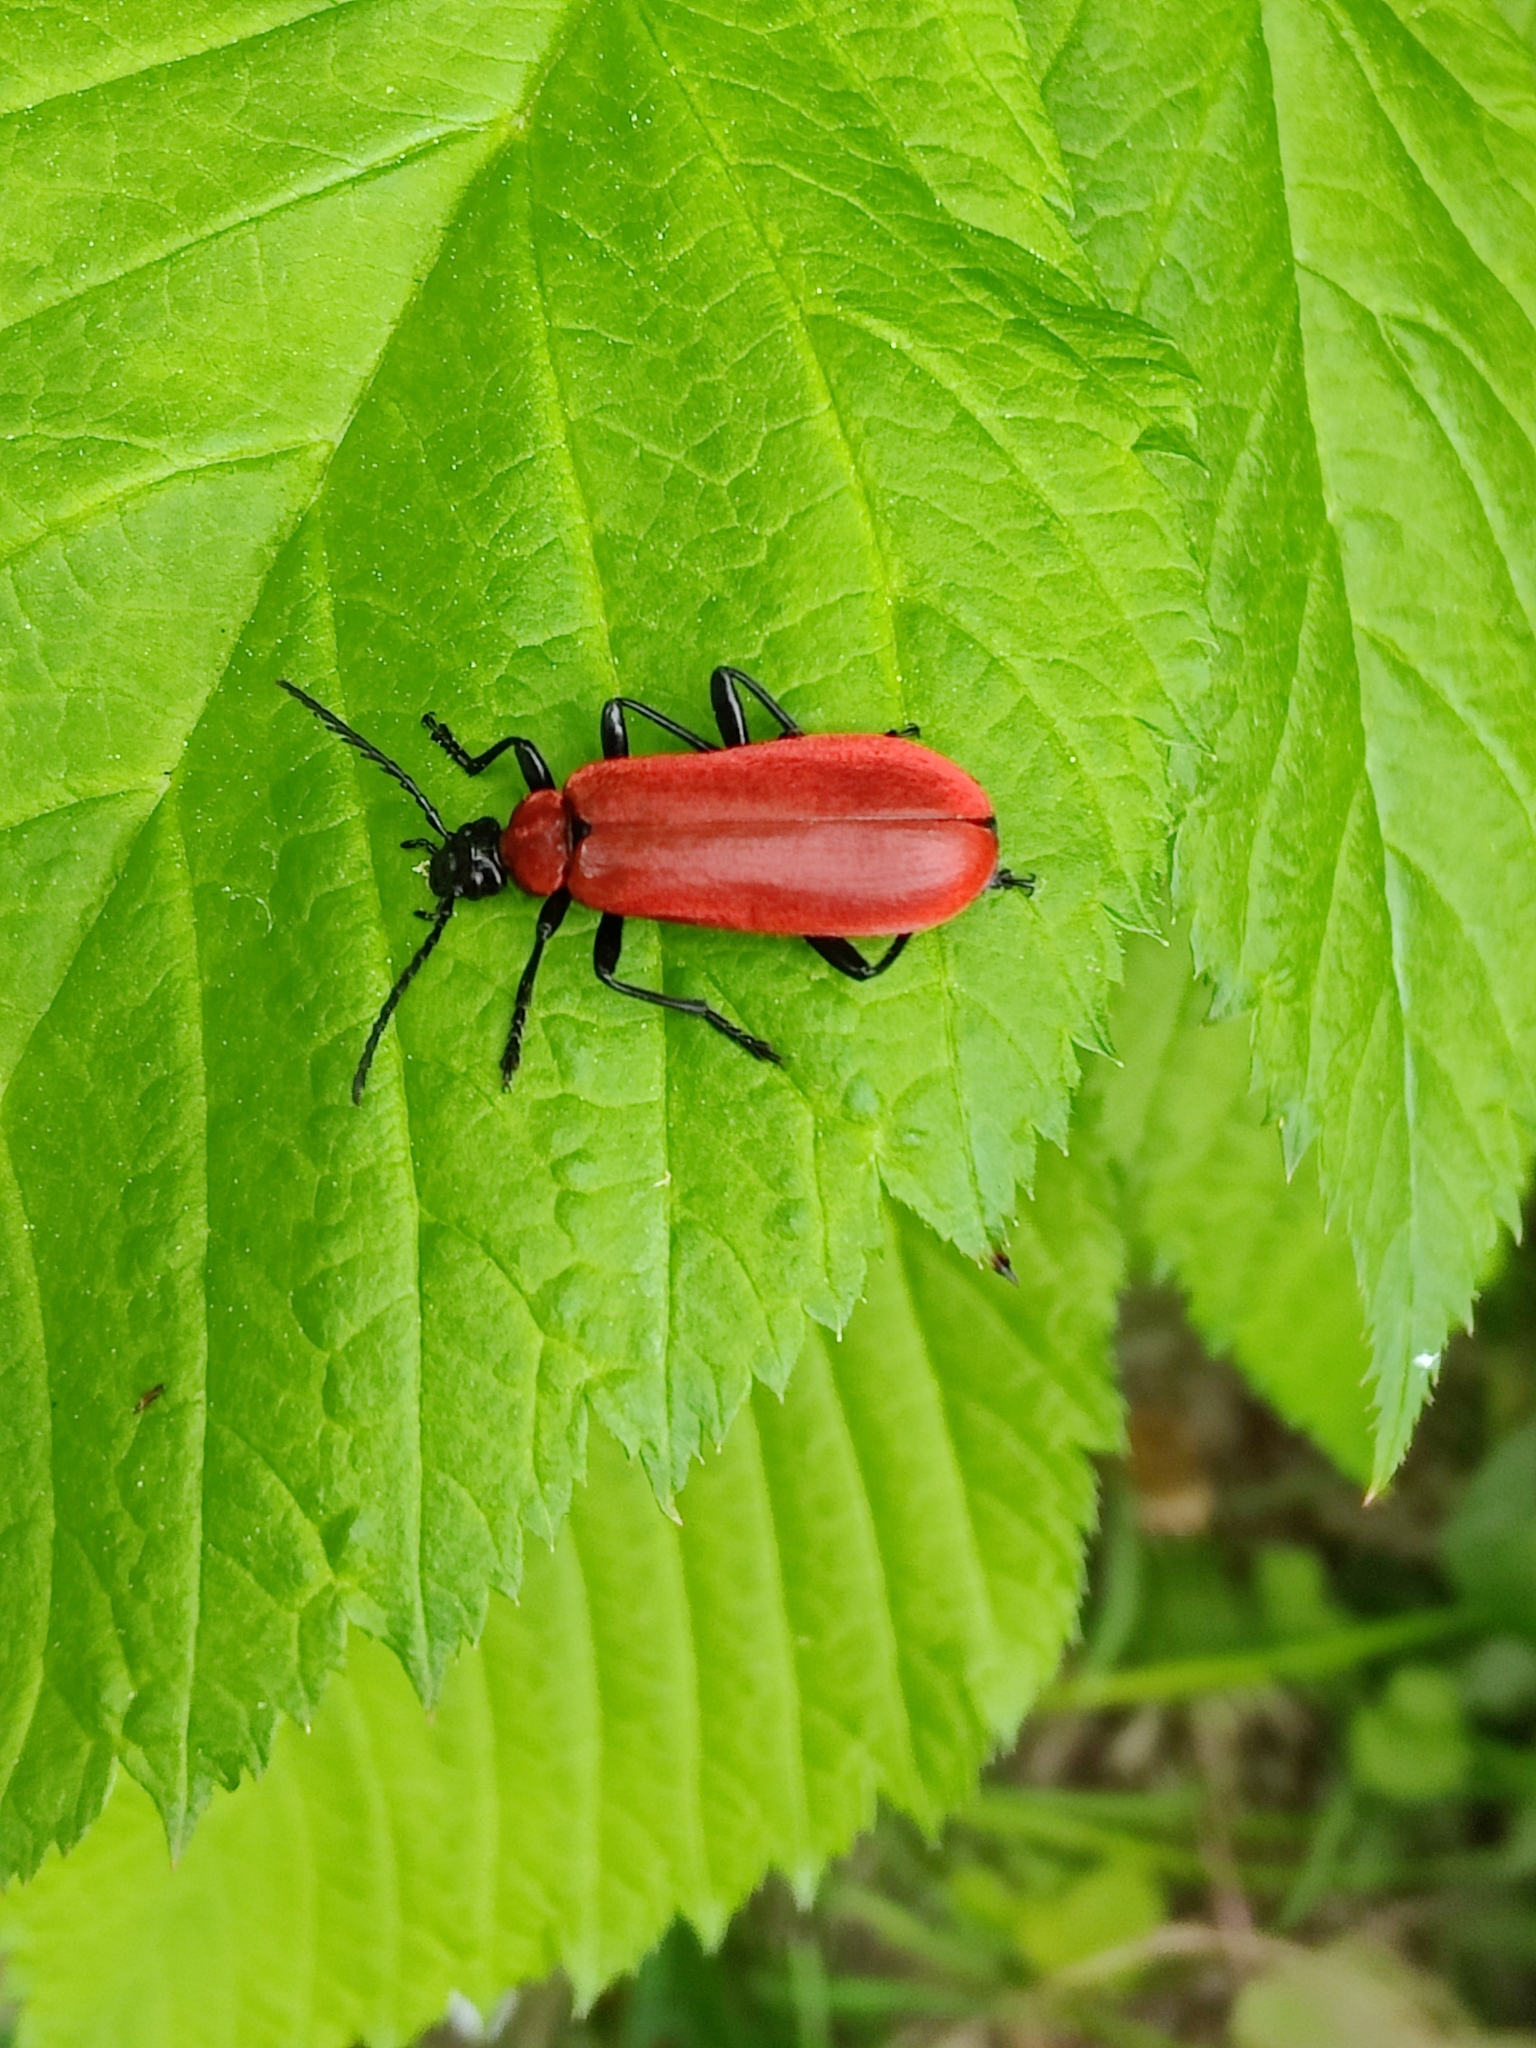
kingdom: Animalia
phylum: Arthropoda
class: Insecta
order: Coleoptera
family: Pyrochroidae
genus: Pyrochroa
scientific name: Pyrochroa coccinea
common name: Black-headed cardinal beetle
